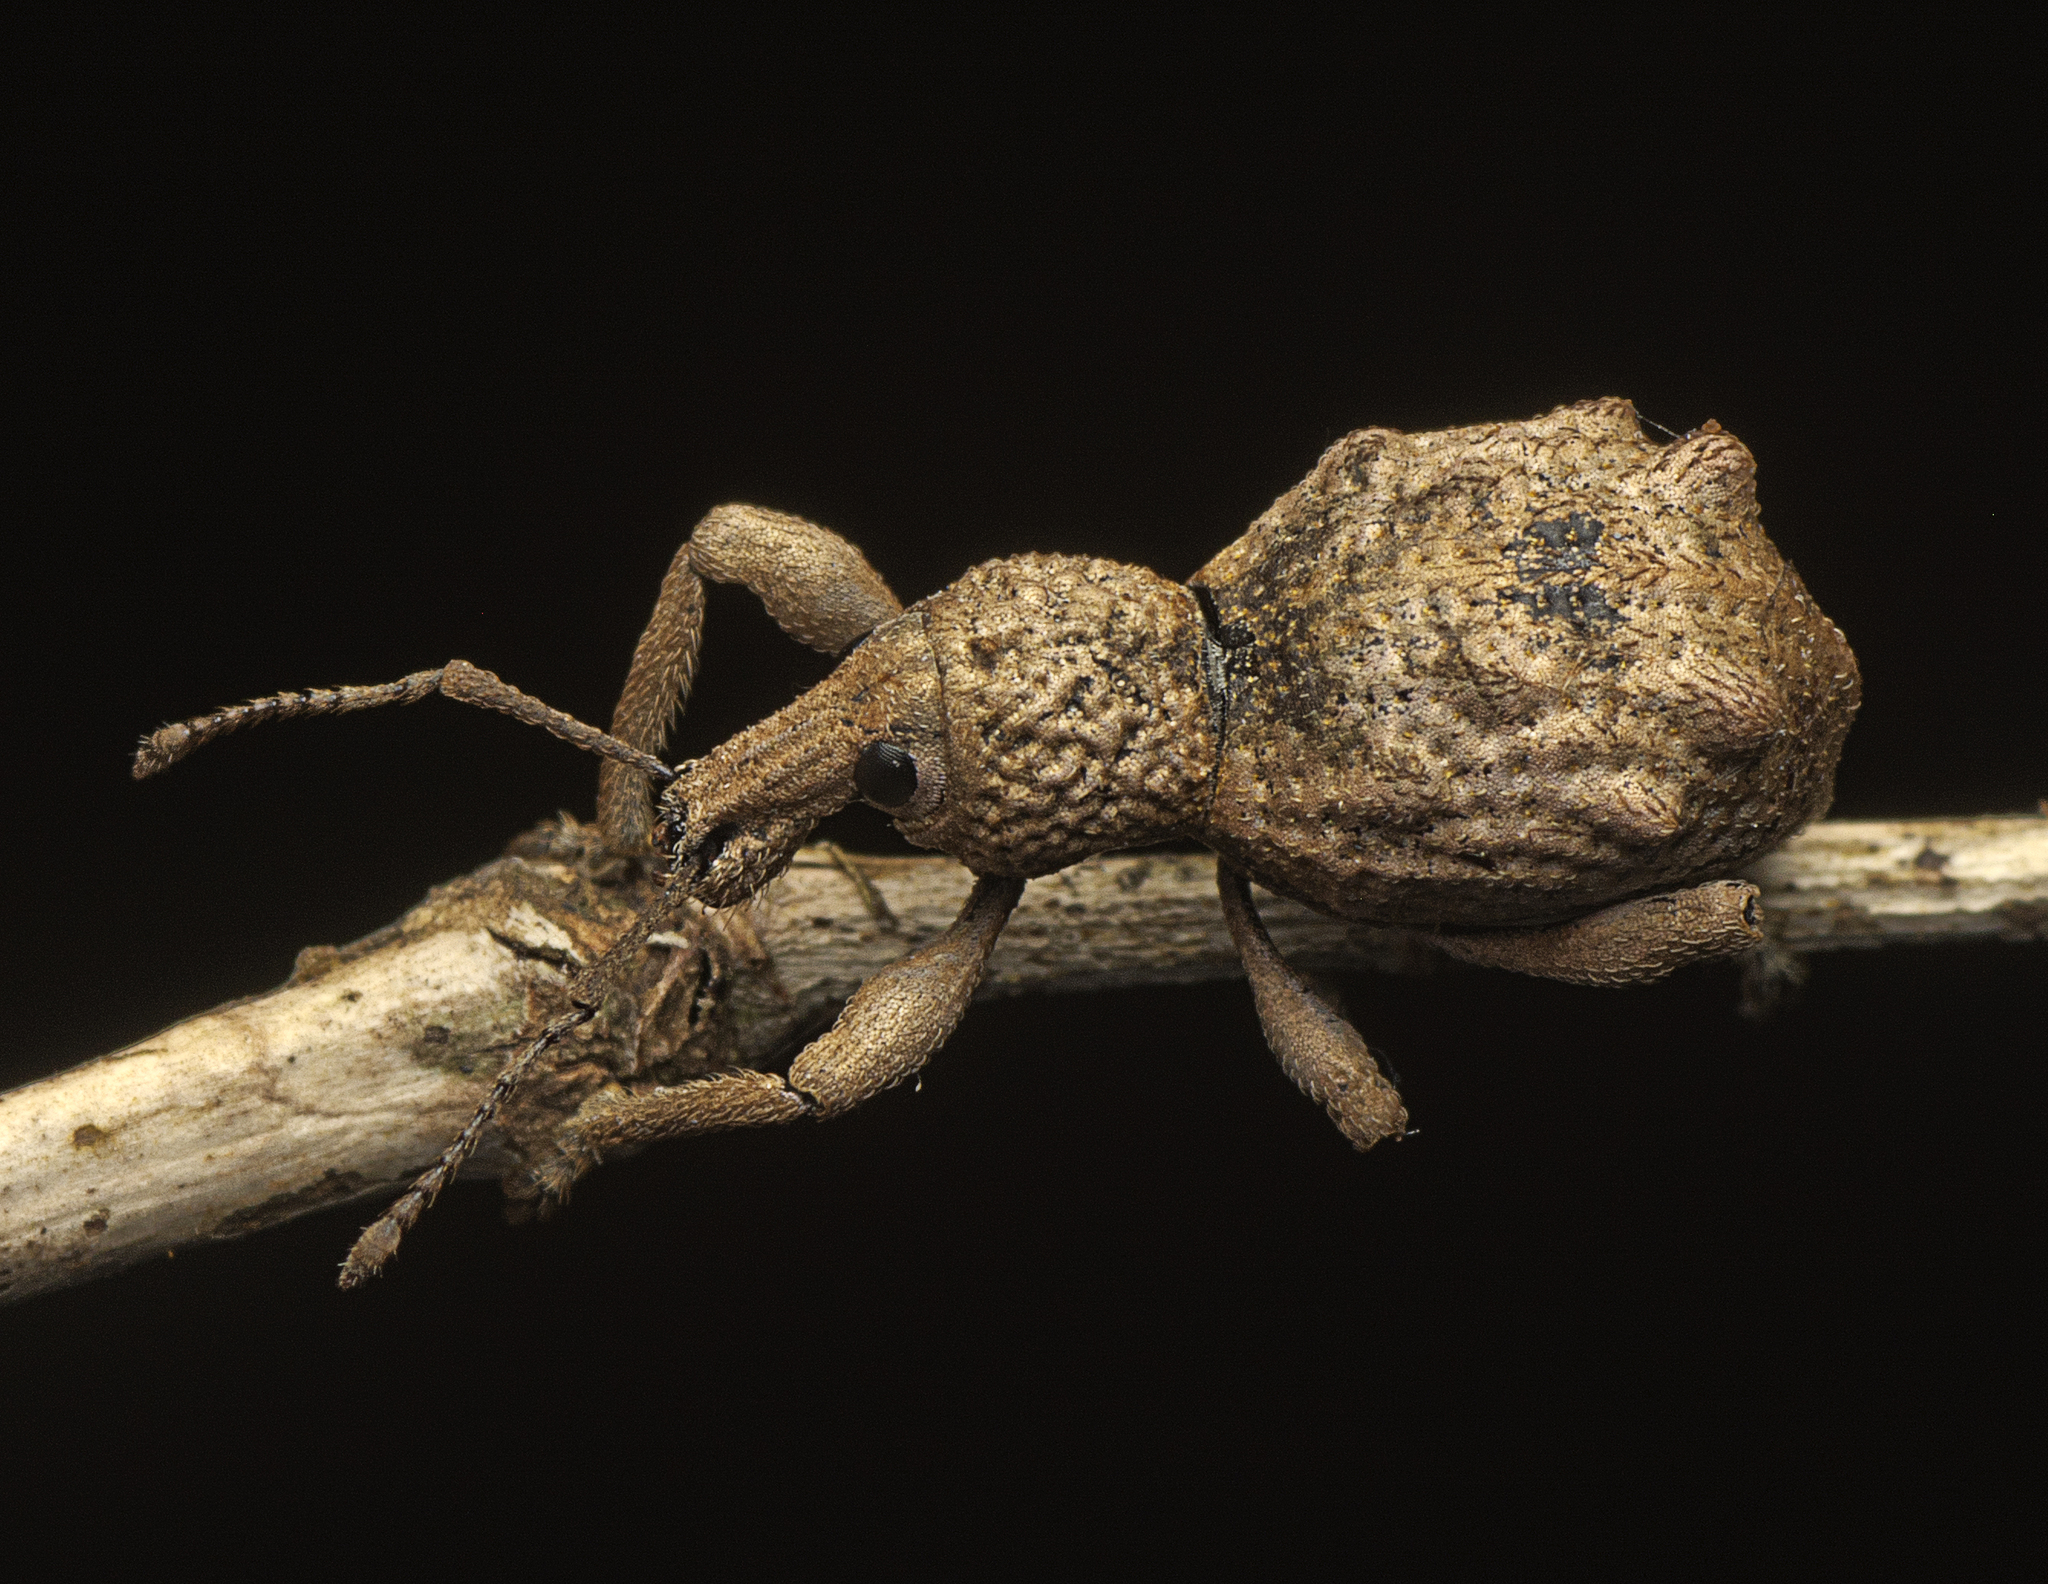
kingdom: Animalia
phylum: Arthropoda
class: Insecta
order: Coleoptera
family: Curculionidae
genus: Leptopius
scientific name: Leptopius tetraphysodes
